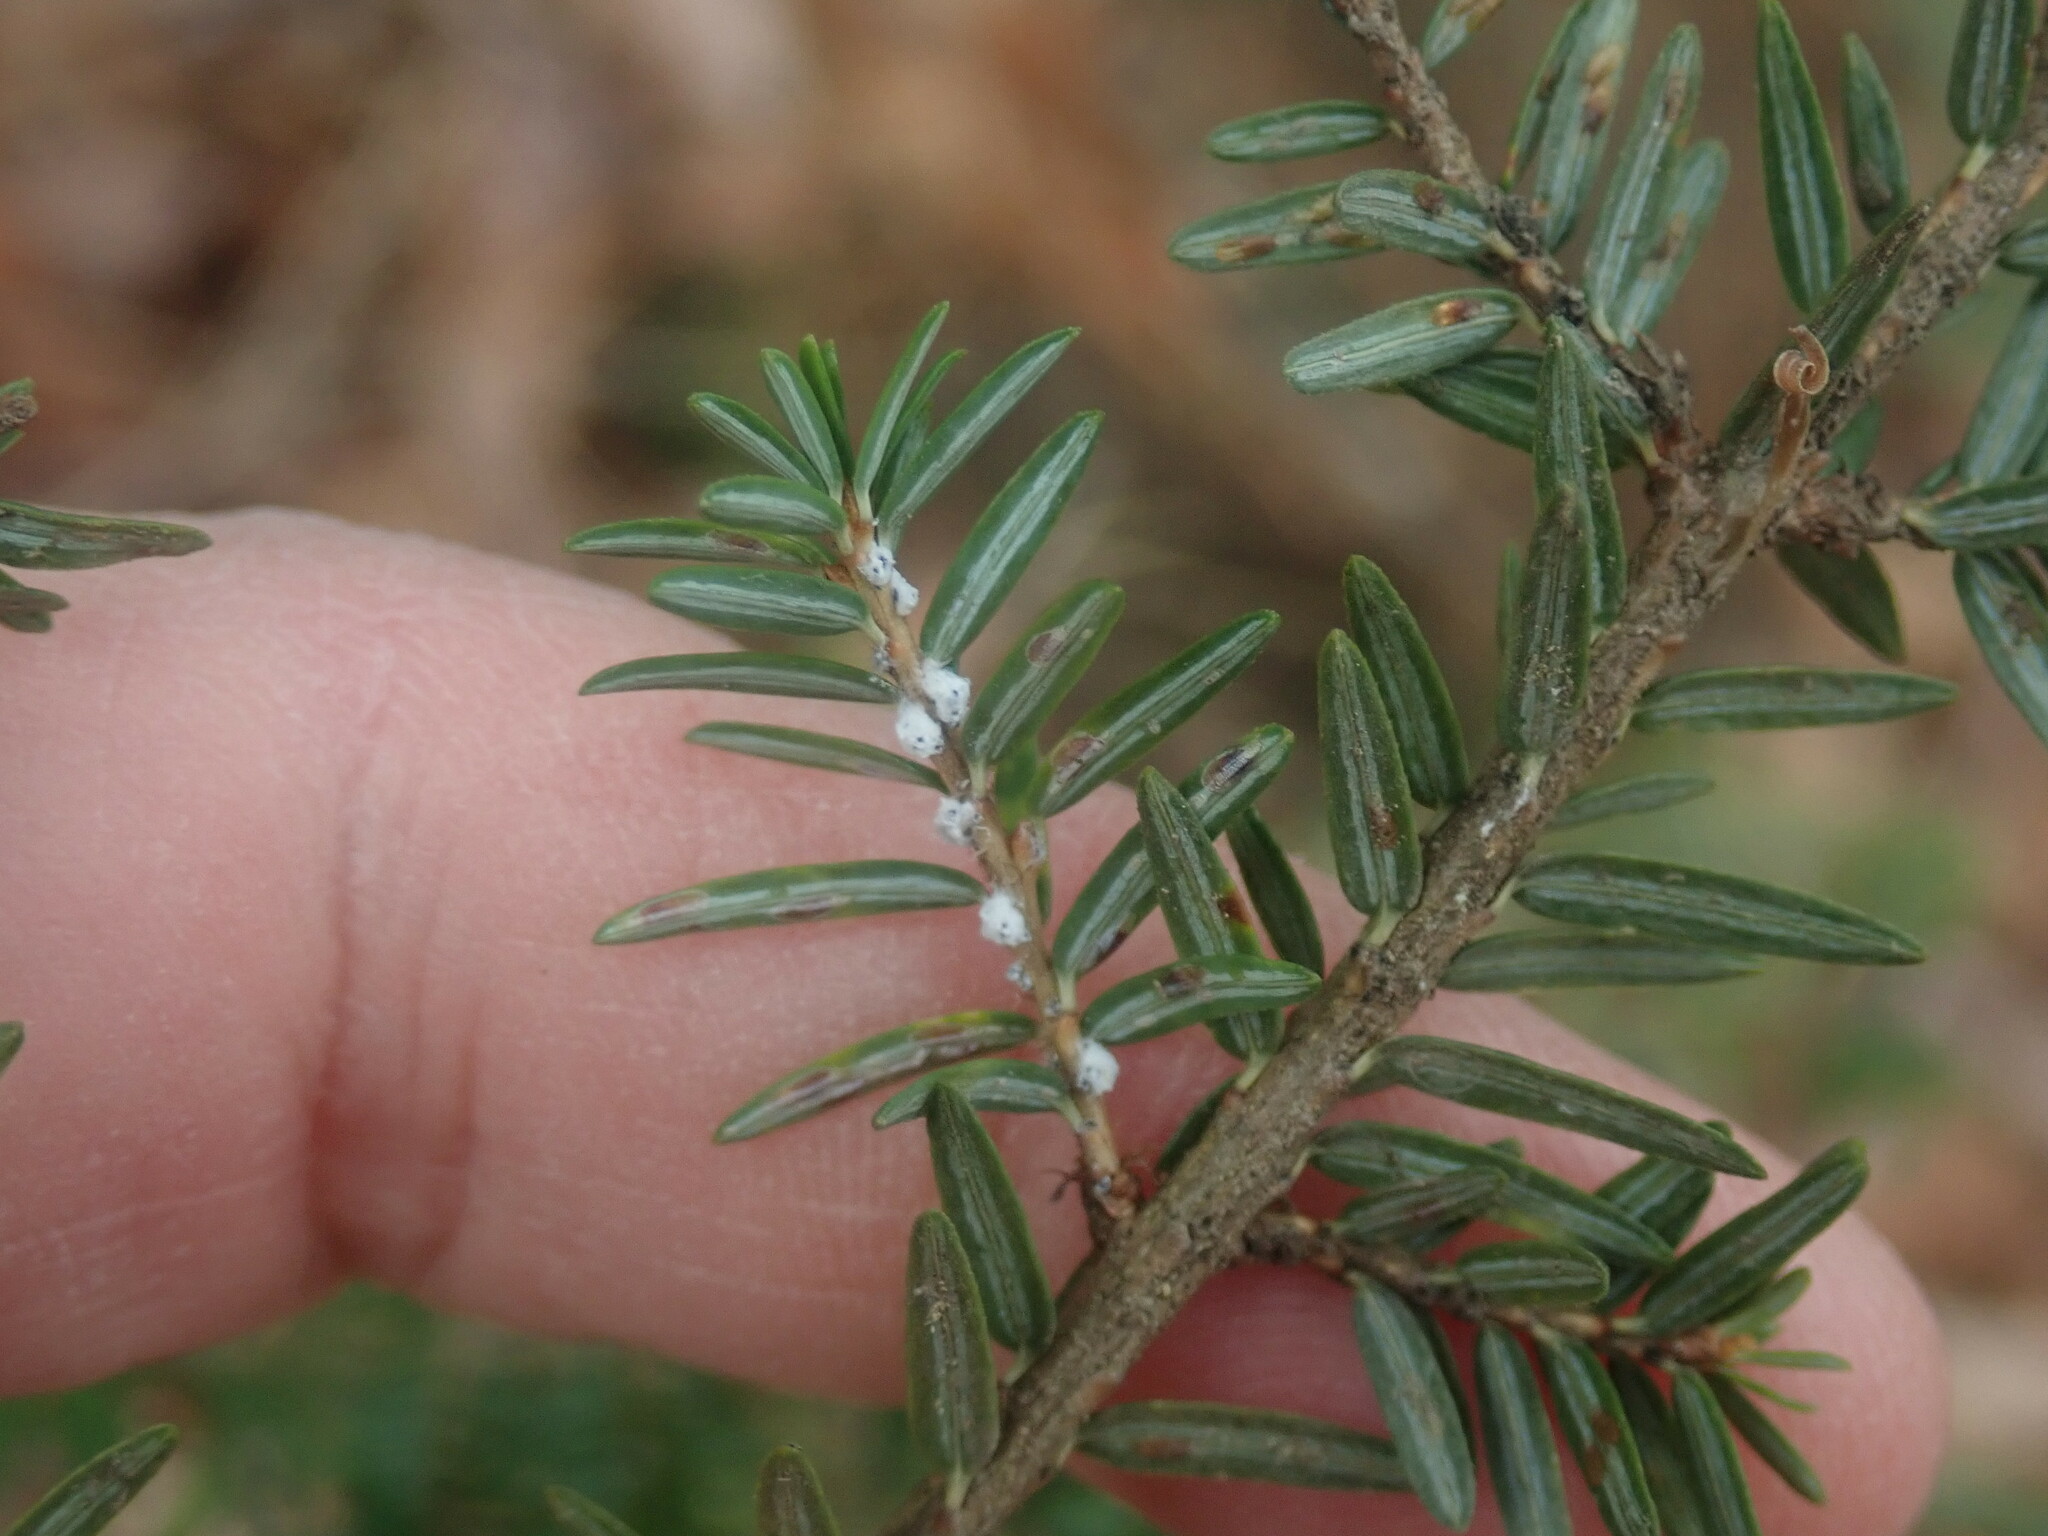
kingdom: Animalia
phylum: Arthropoda
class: Insecta
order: Hemiptera
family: Adelgidae
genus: Adelges
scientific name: Adelges tsugae
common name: Hemlock woolly adelgid
